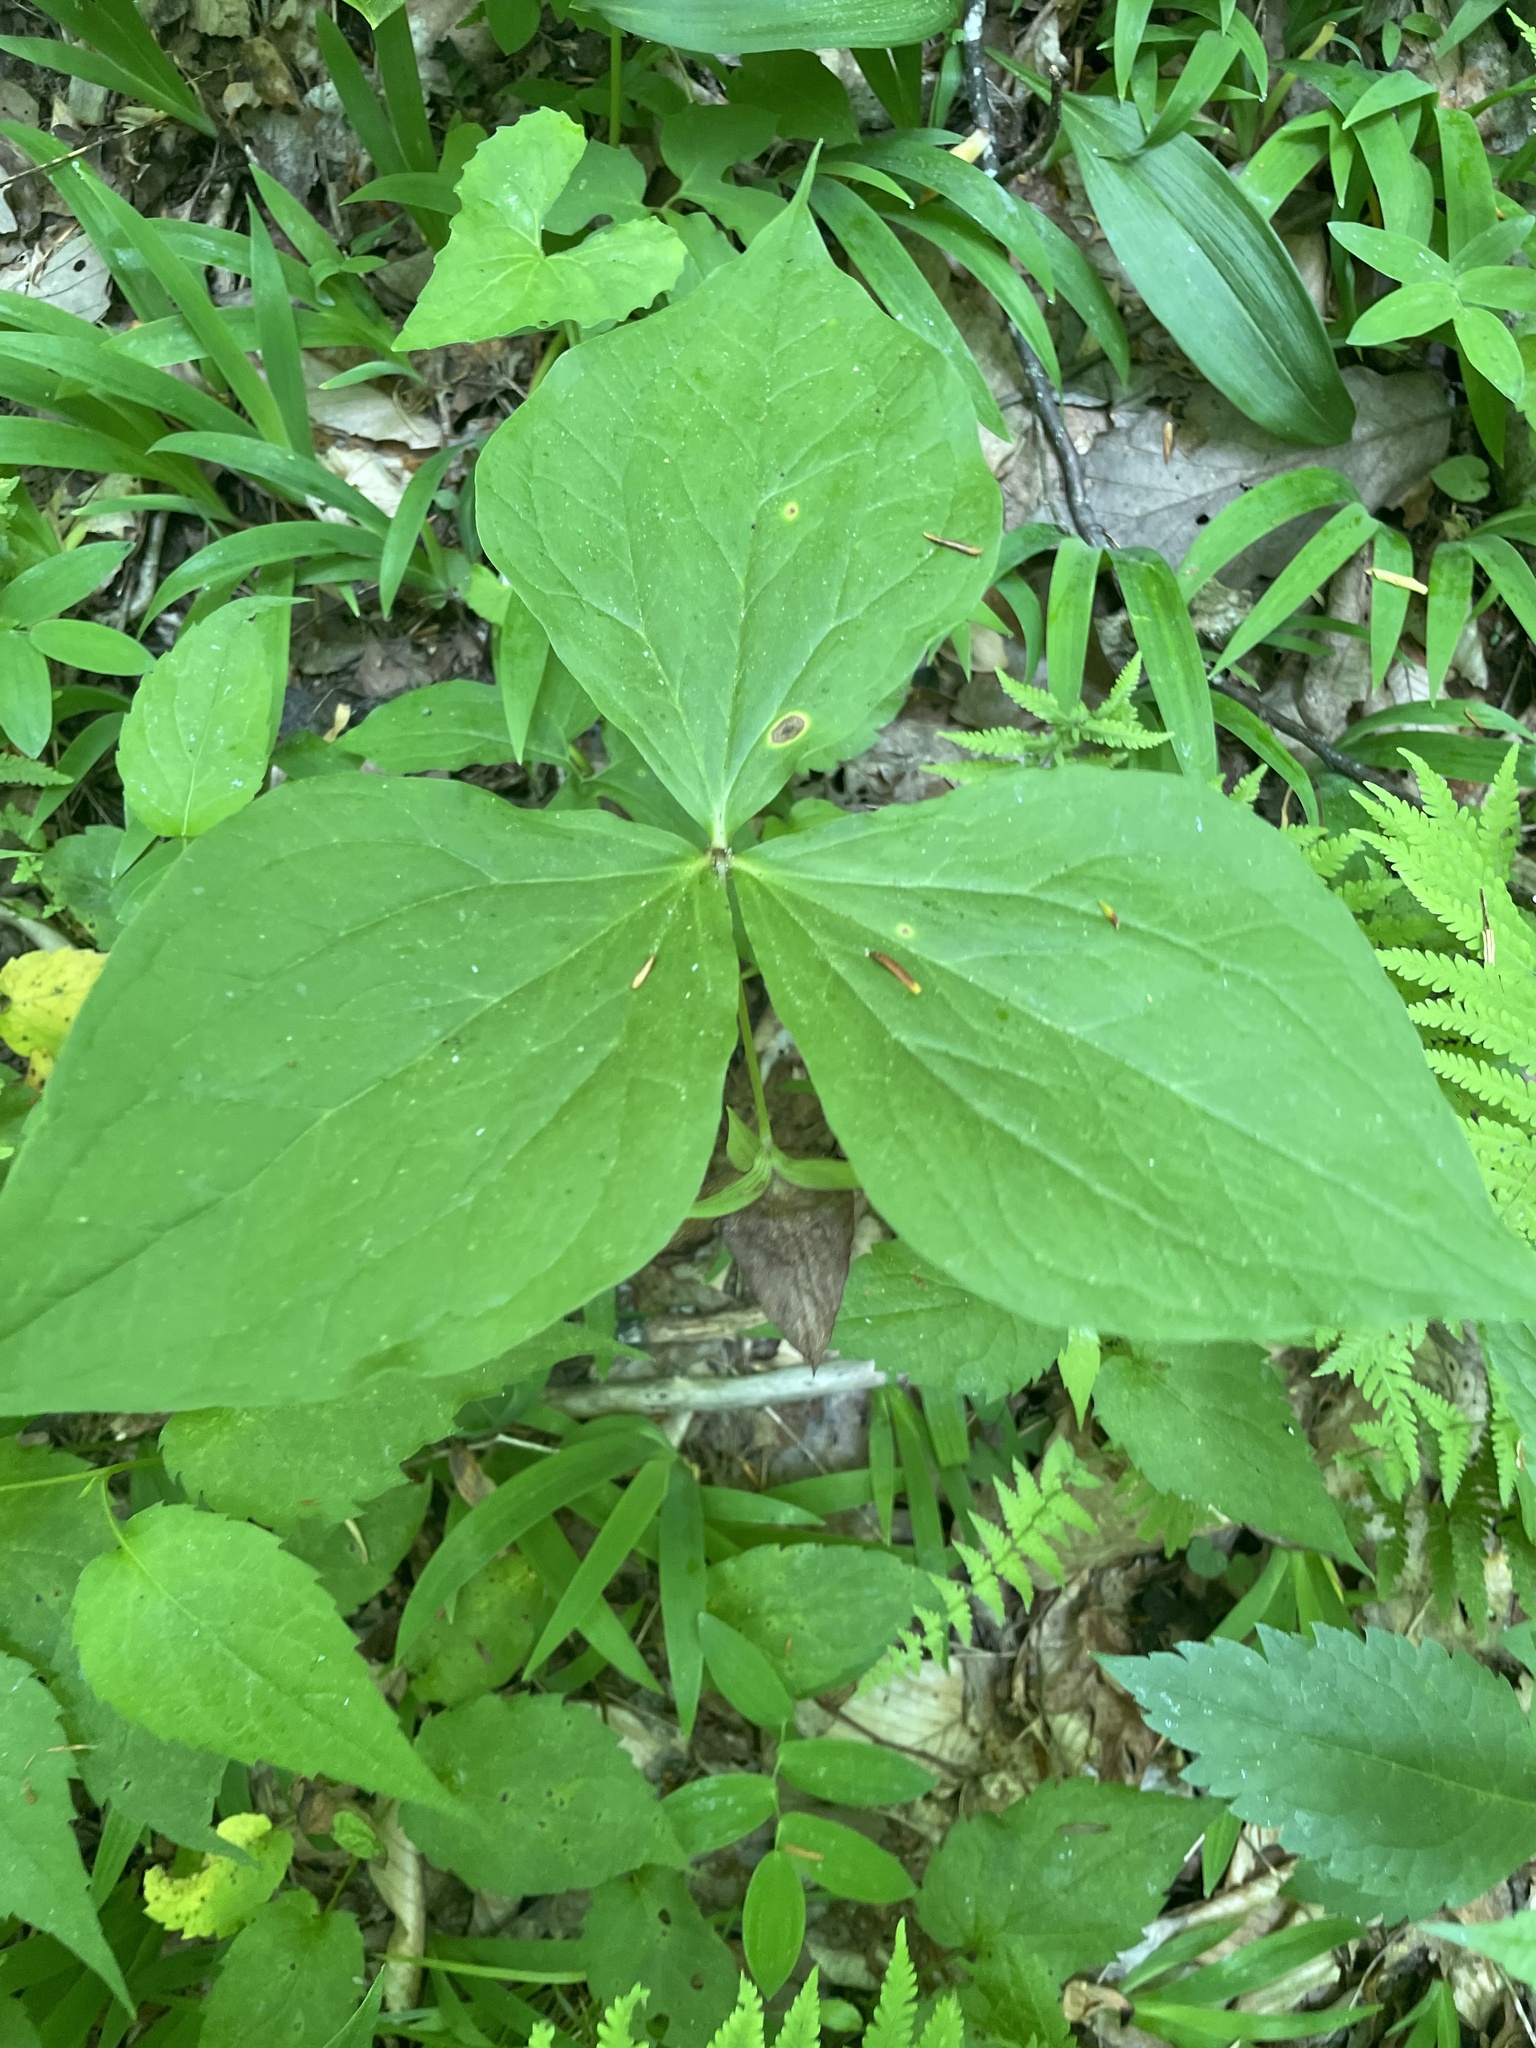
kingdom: Plantae
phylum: Tracheophyta
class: Liliopsida
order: Liliales
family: Melanthiaceae
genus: Trillium
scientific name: Trillium vaseyi
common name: Sweet trillium
